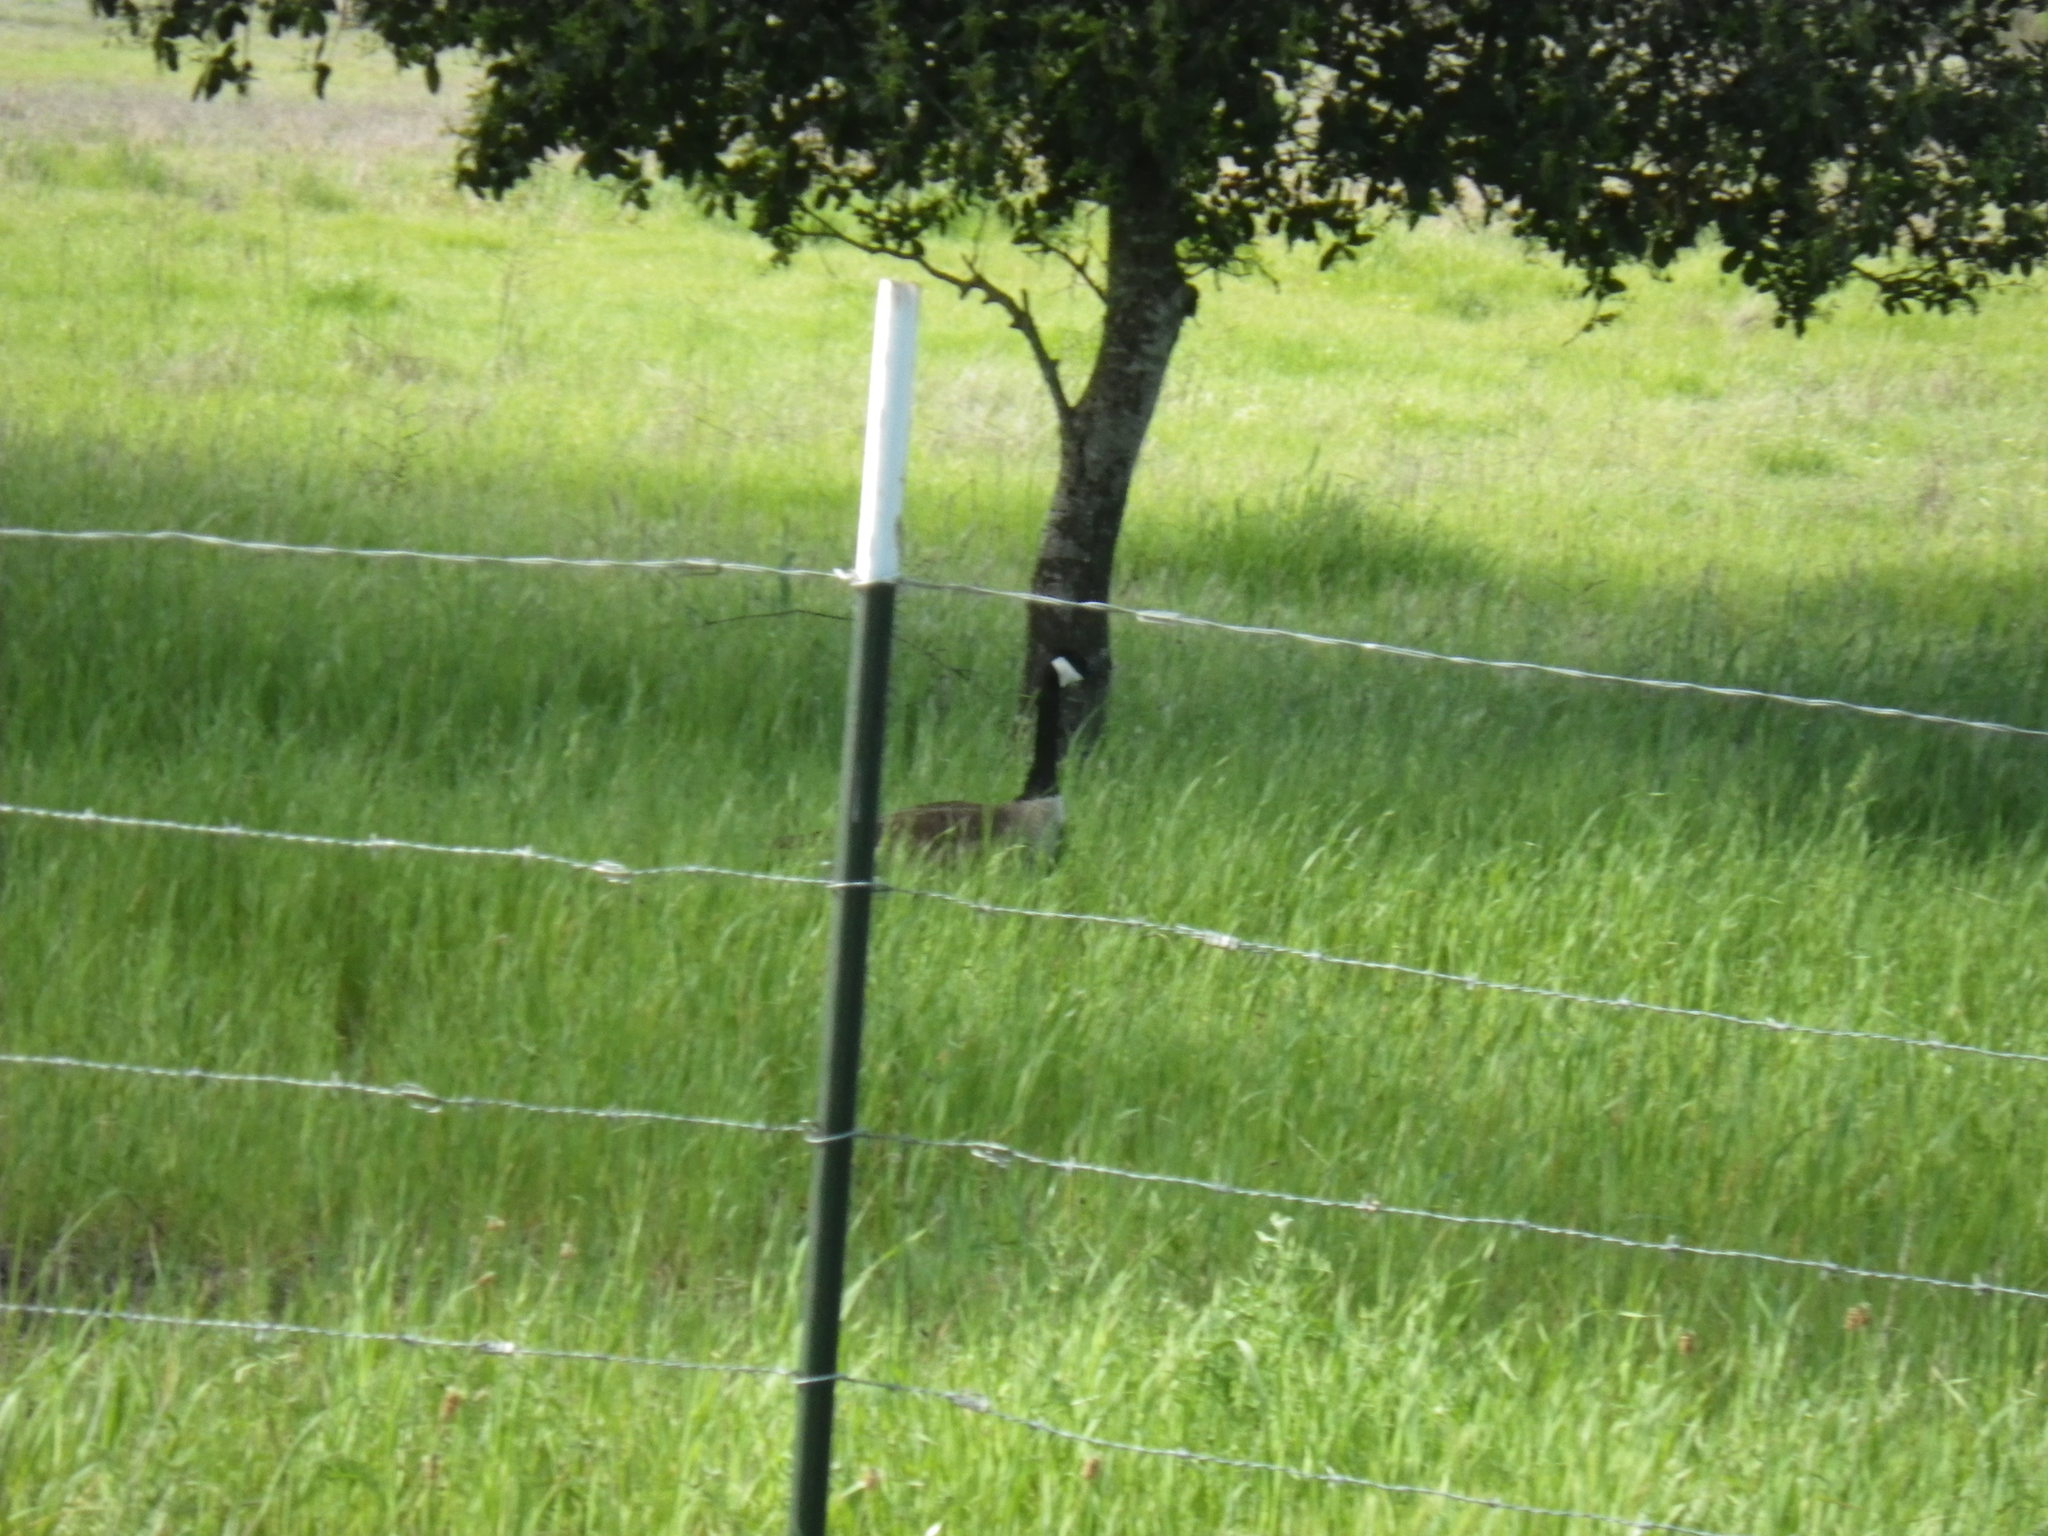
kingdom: Animalia
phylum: Chordata
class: Aves
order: Anseriformes
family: Anatidae
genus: Branta
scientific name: Branta canadensis
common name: Canada goose
